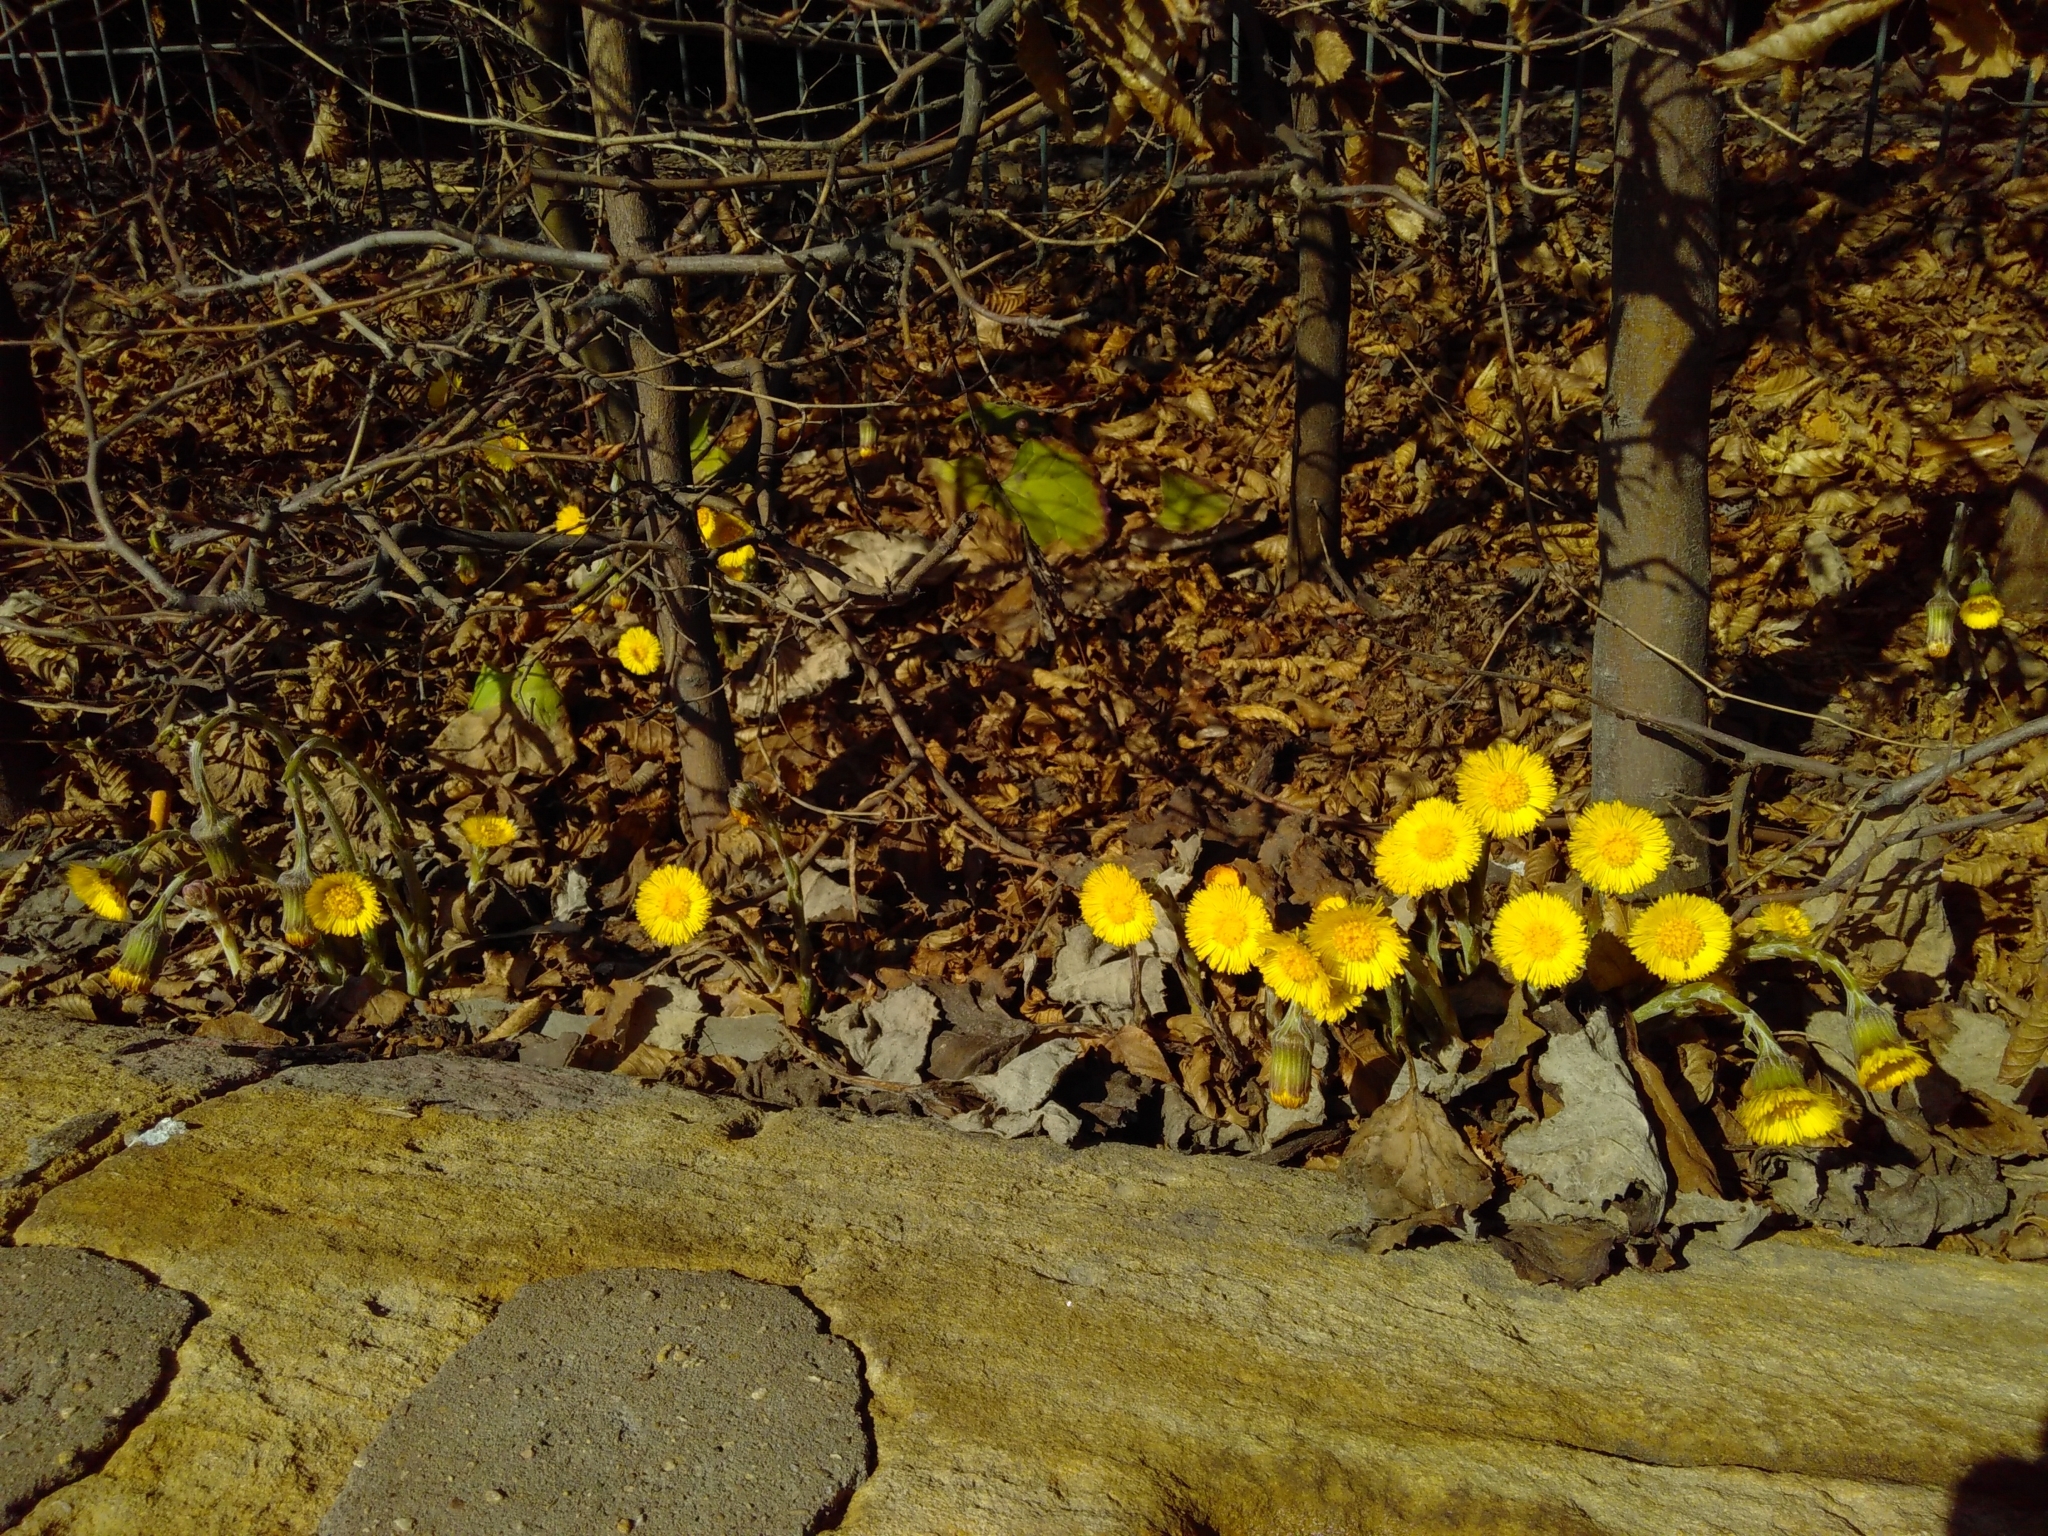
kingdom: Plantae
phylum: Tracheophyta
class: Magnoliopsida
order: Asterales
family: Asteraceae
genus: Tussilago
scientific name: Tussilago farfara
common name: Coltsfoot
